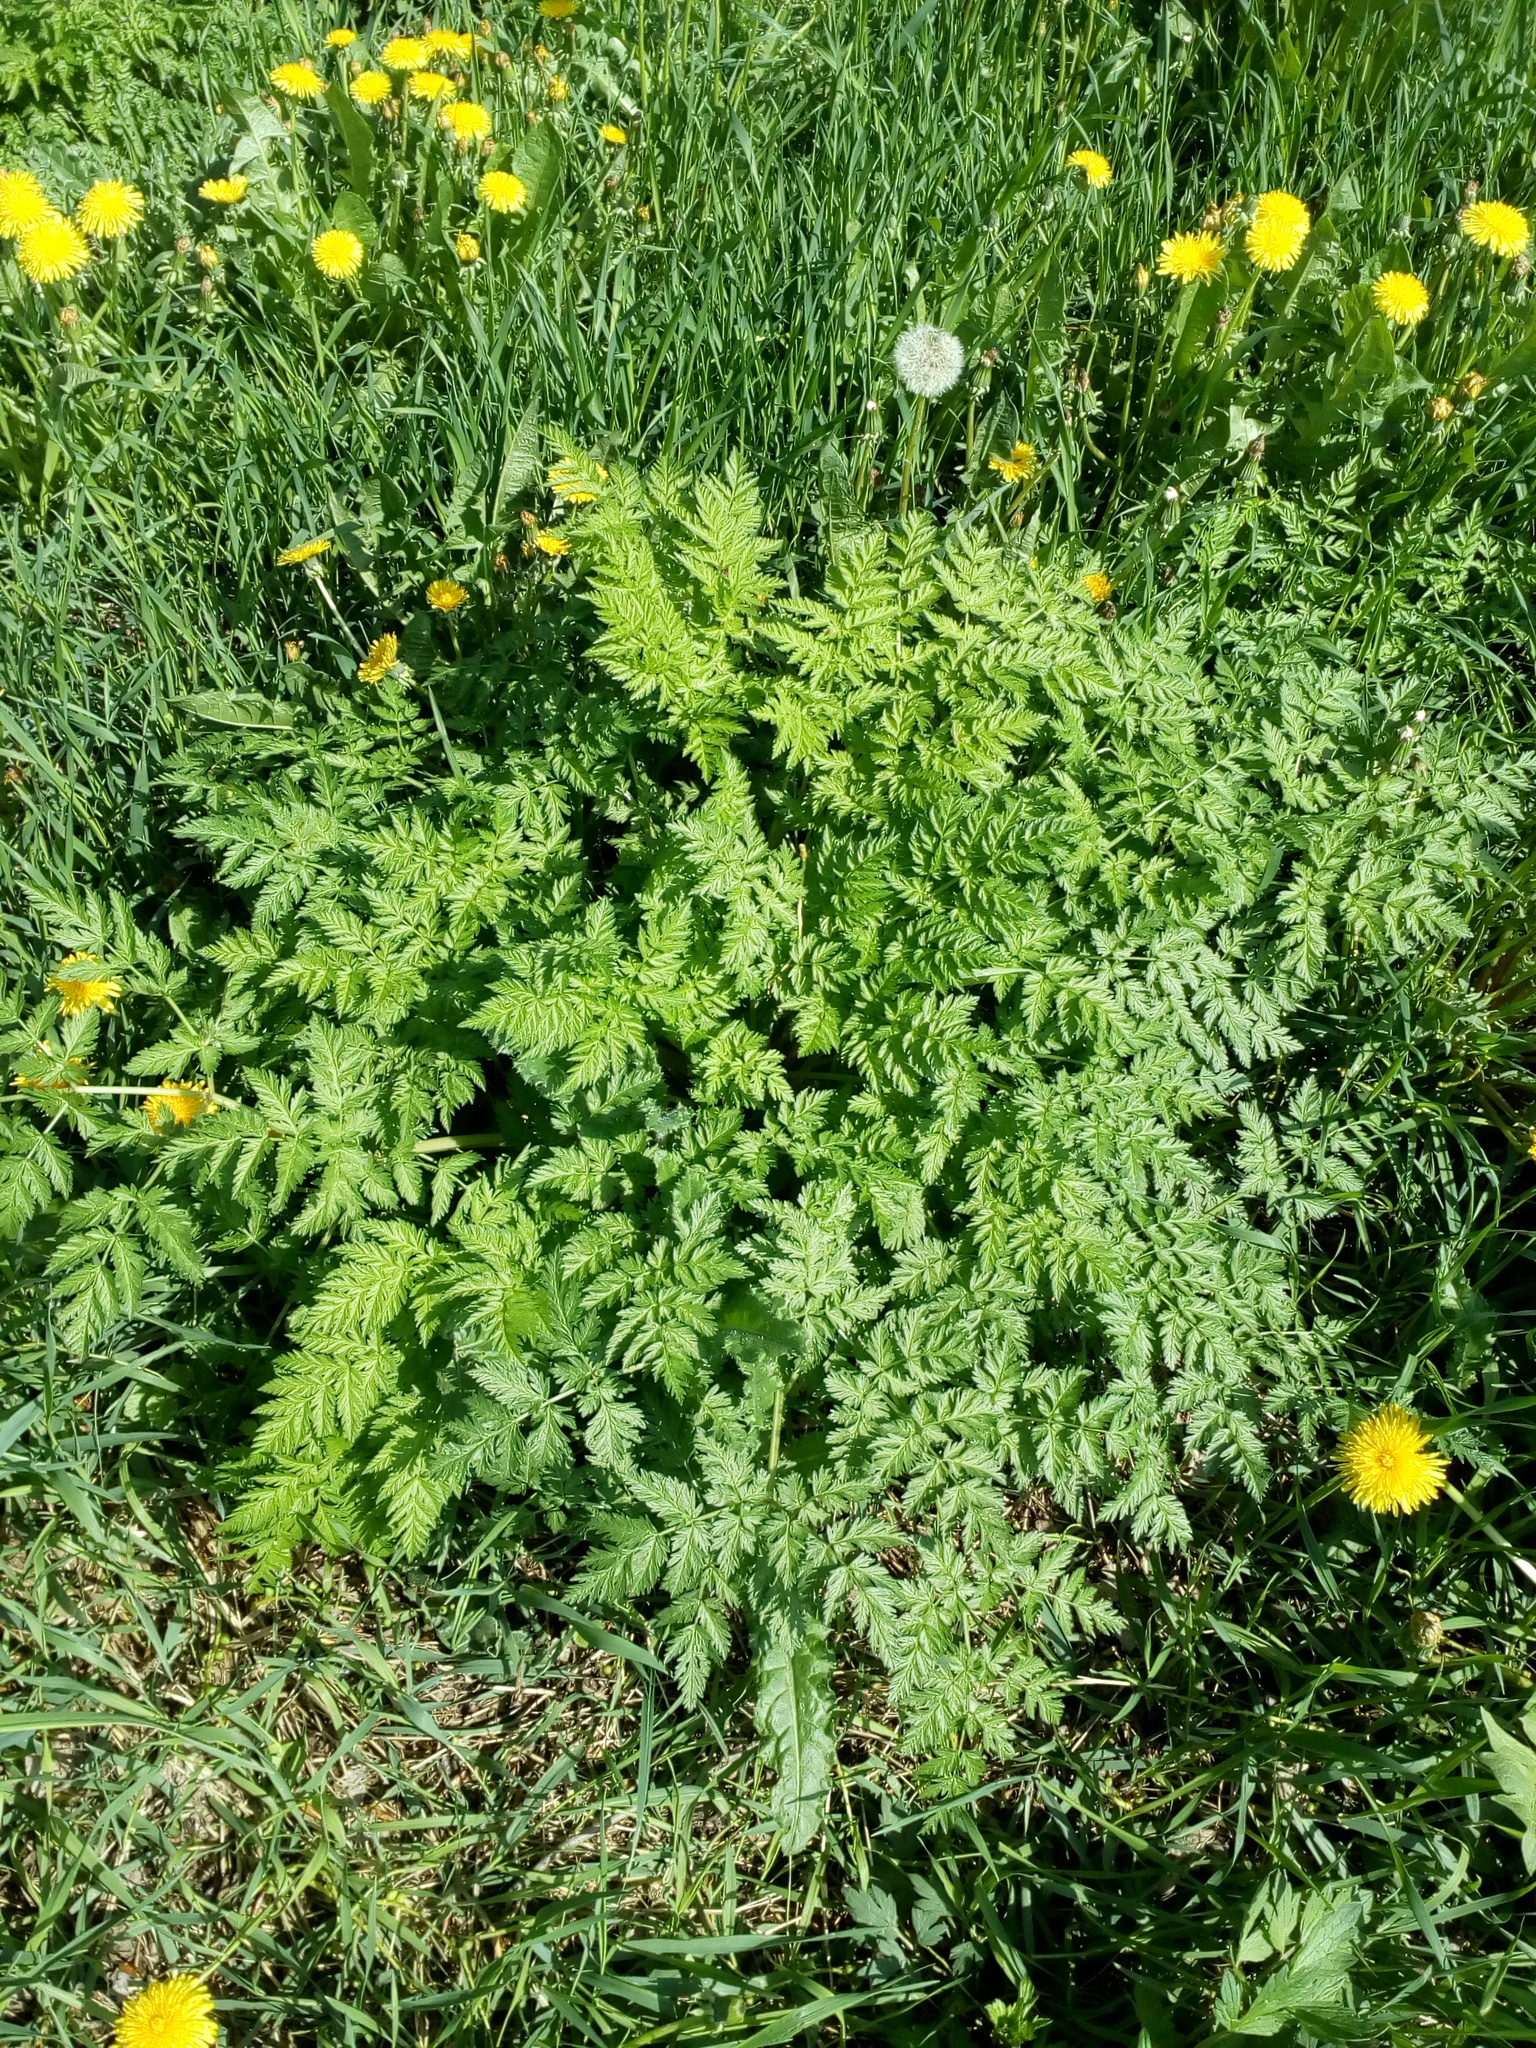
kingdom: Plantae
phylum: Tracheophyta
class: Magnoliopsida
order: Apiales
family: Apiaceae
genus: Anthriscus
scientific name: Anthriscus sylvestris
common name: Cow parsley
